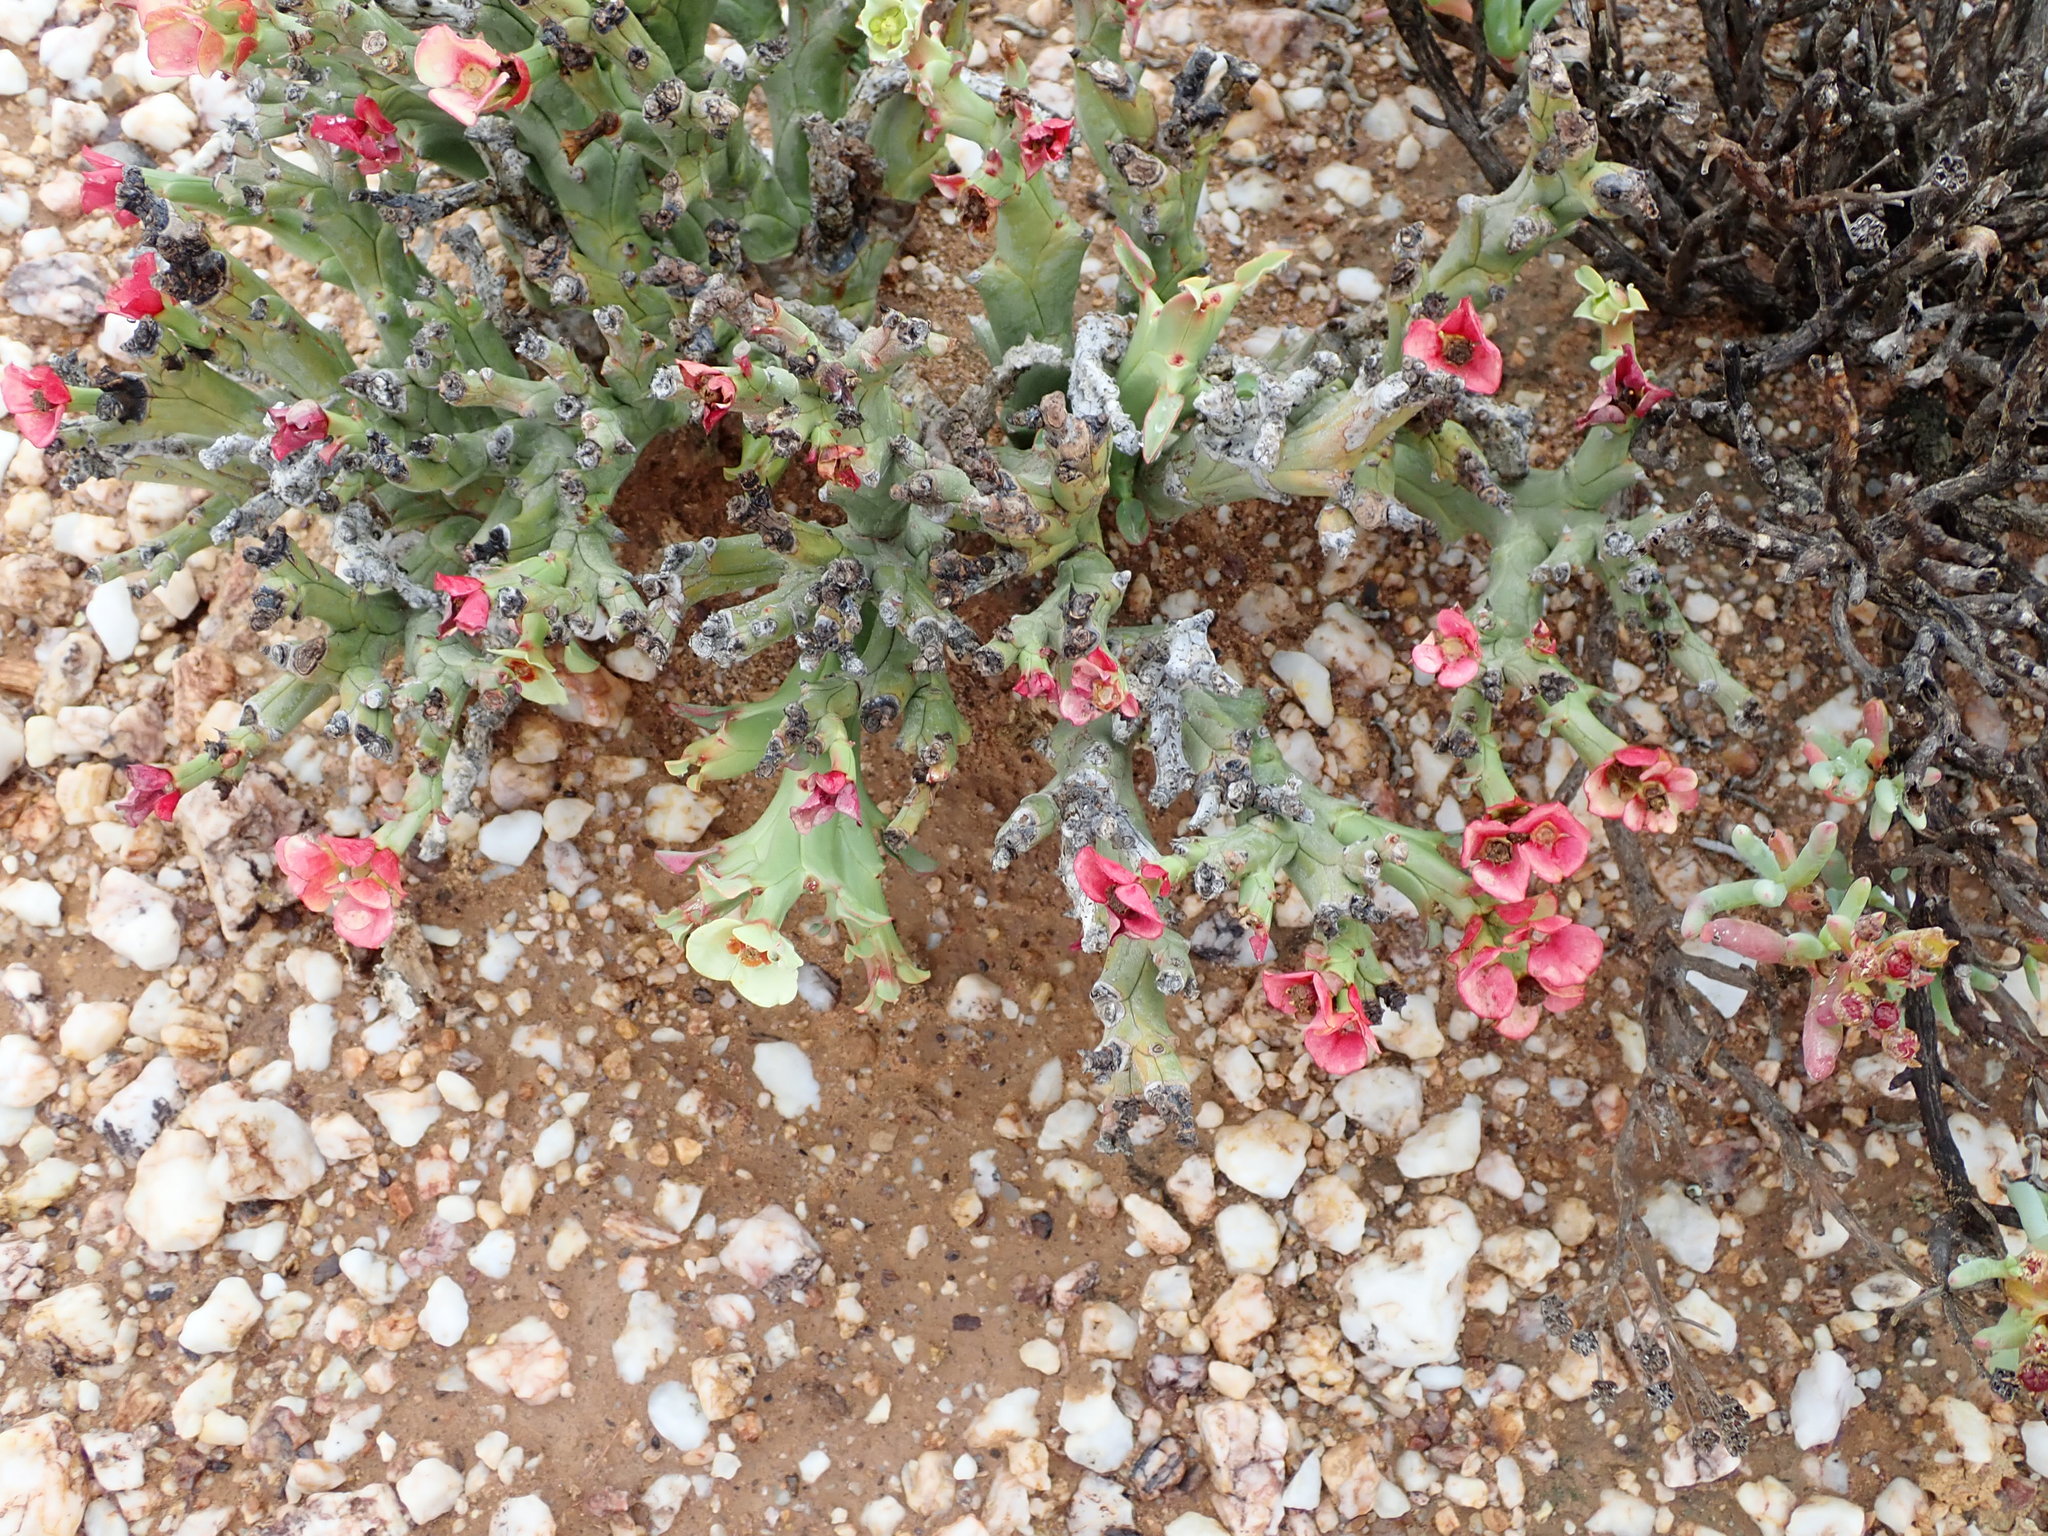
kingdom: Plantae
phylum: Tracheophyta
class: Magnoliopsida
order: Malpighiales
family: Euphorbiaceae
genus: Euphorbia
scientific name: Euphorbia hamata
